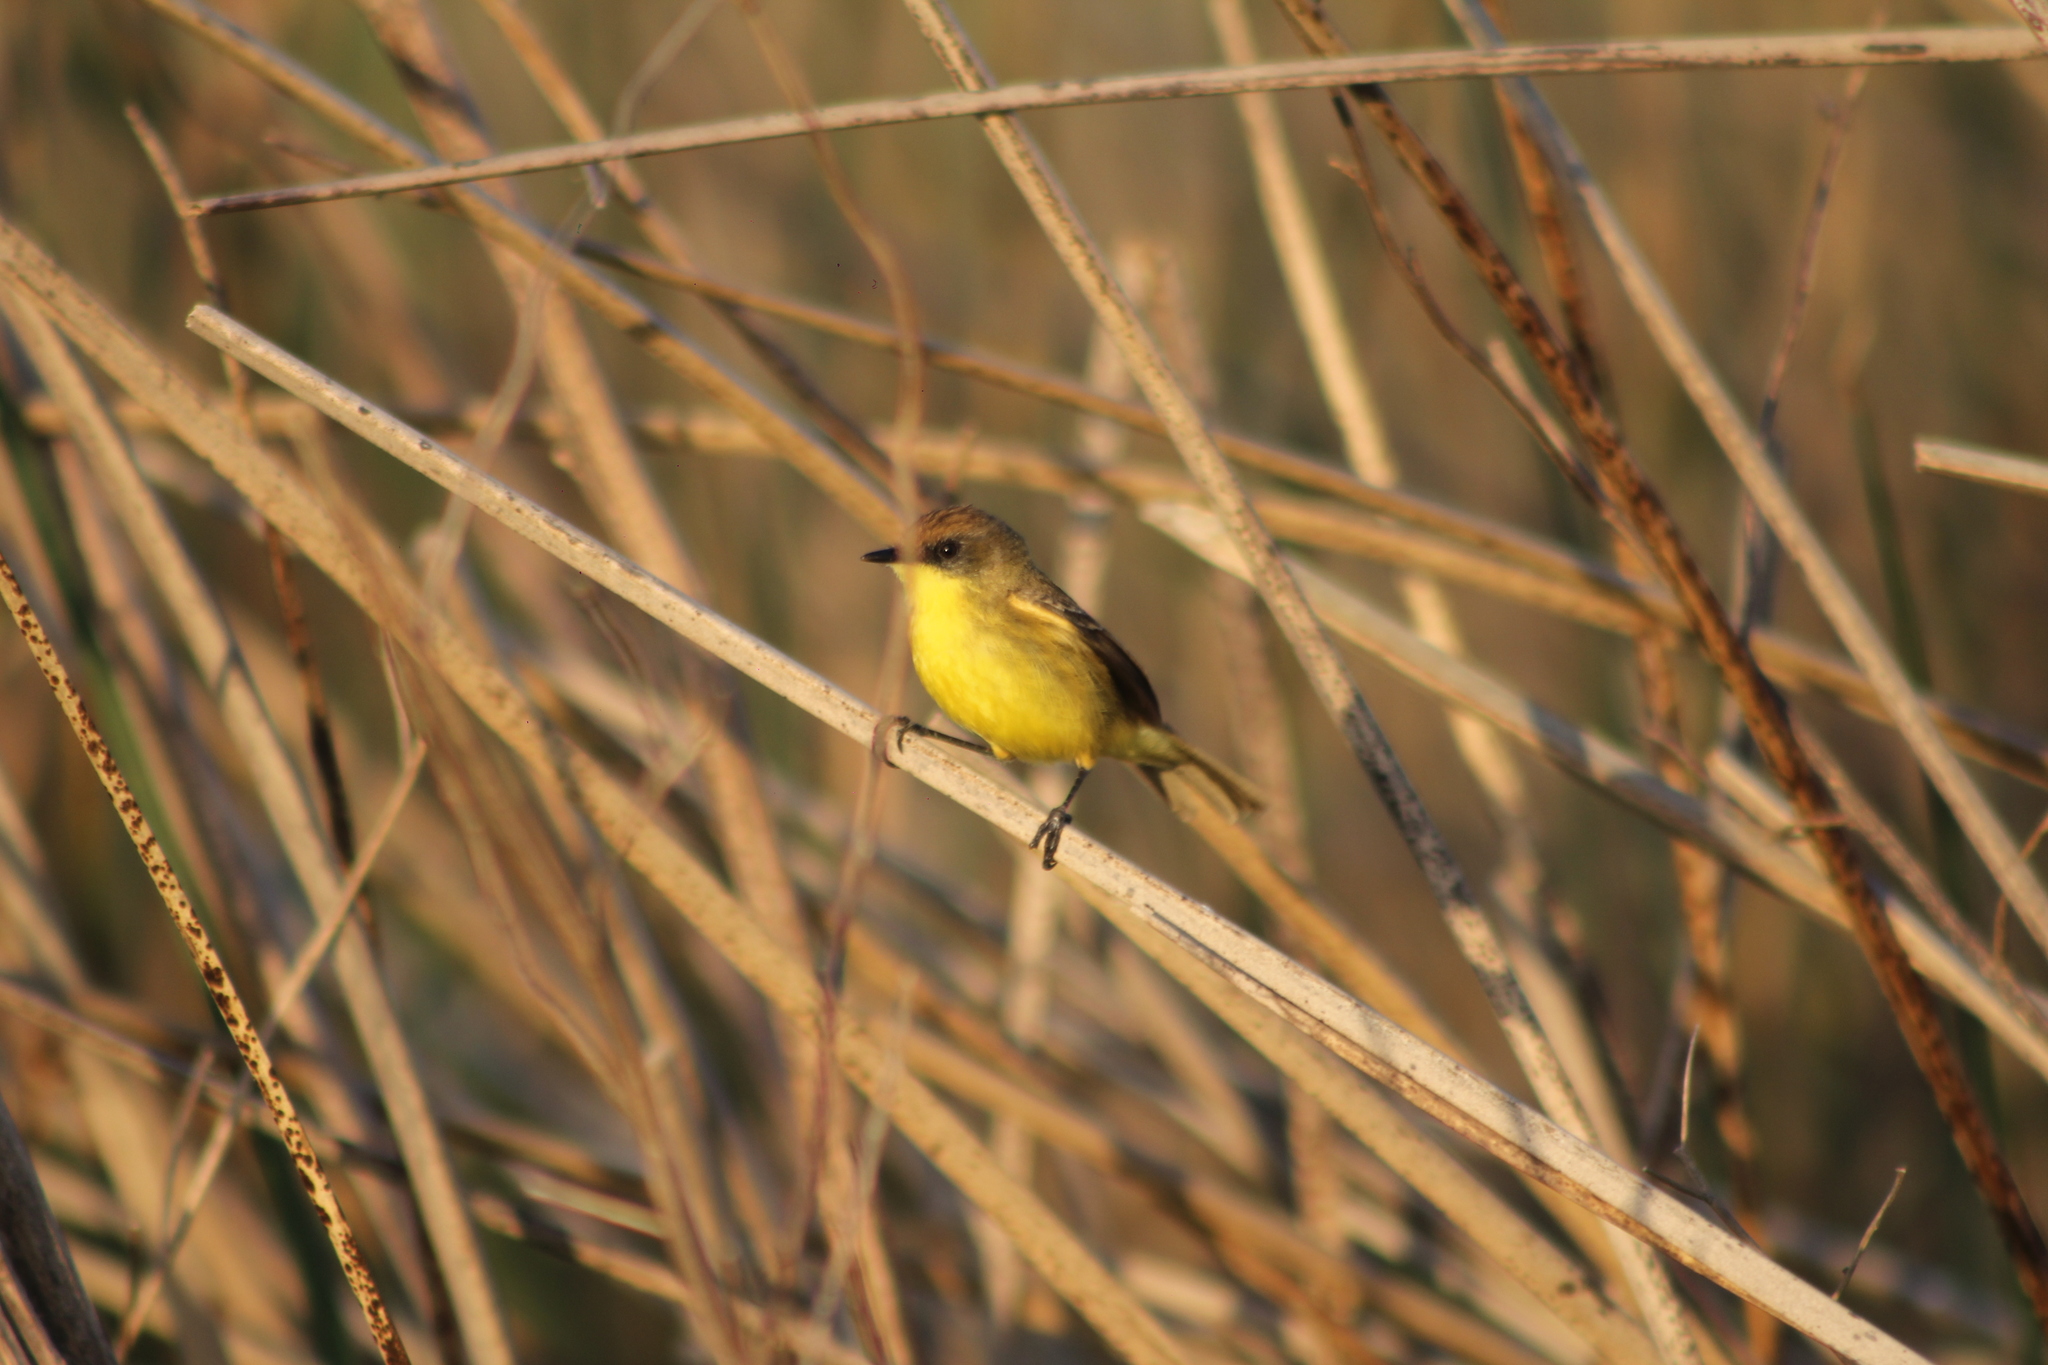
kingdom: Animalia
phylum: Chordata
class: Aves
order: Passeriformes
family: Tyrannidae
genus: Pseudocolopteryx
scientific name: Pseudocolopteryx flaviventris
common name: Warbling doradito
